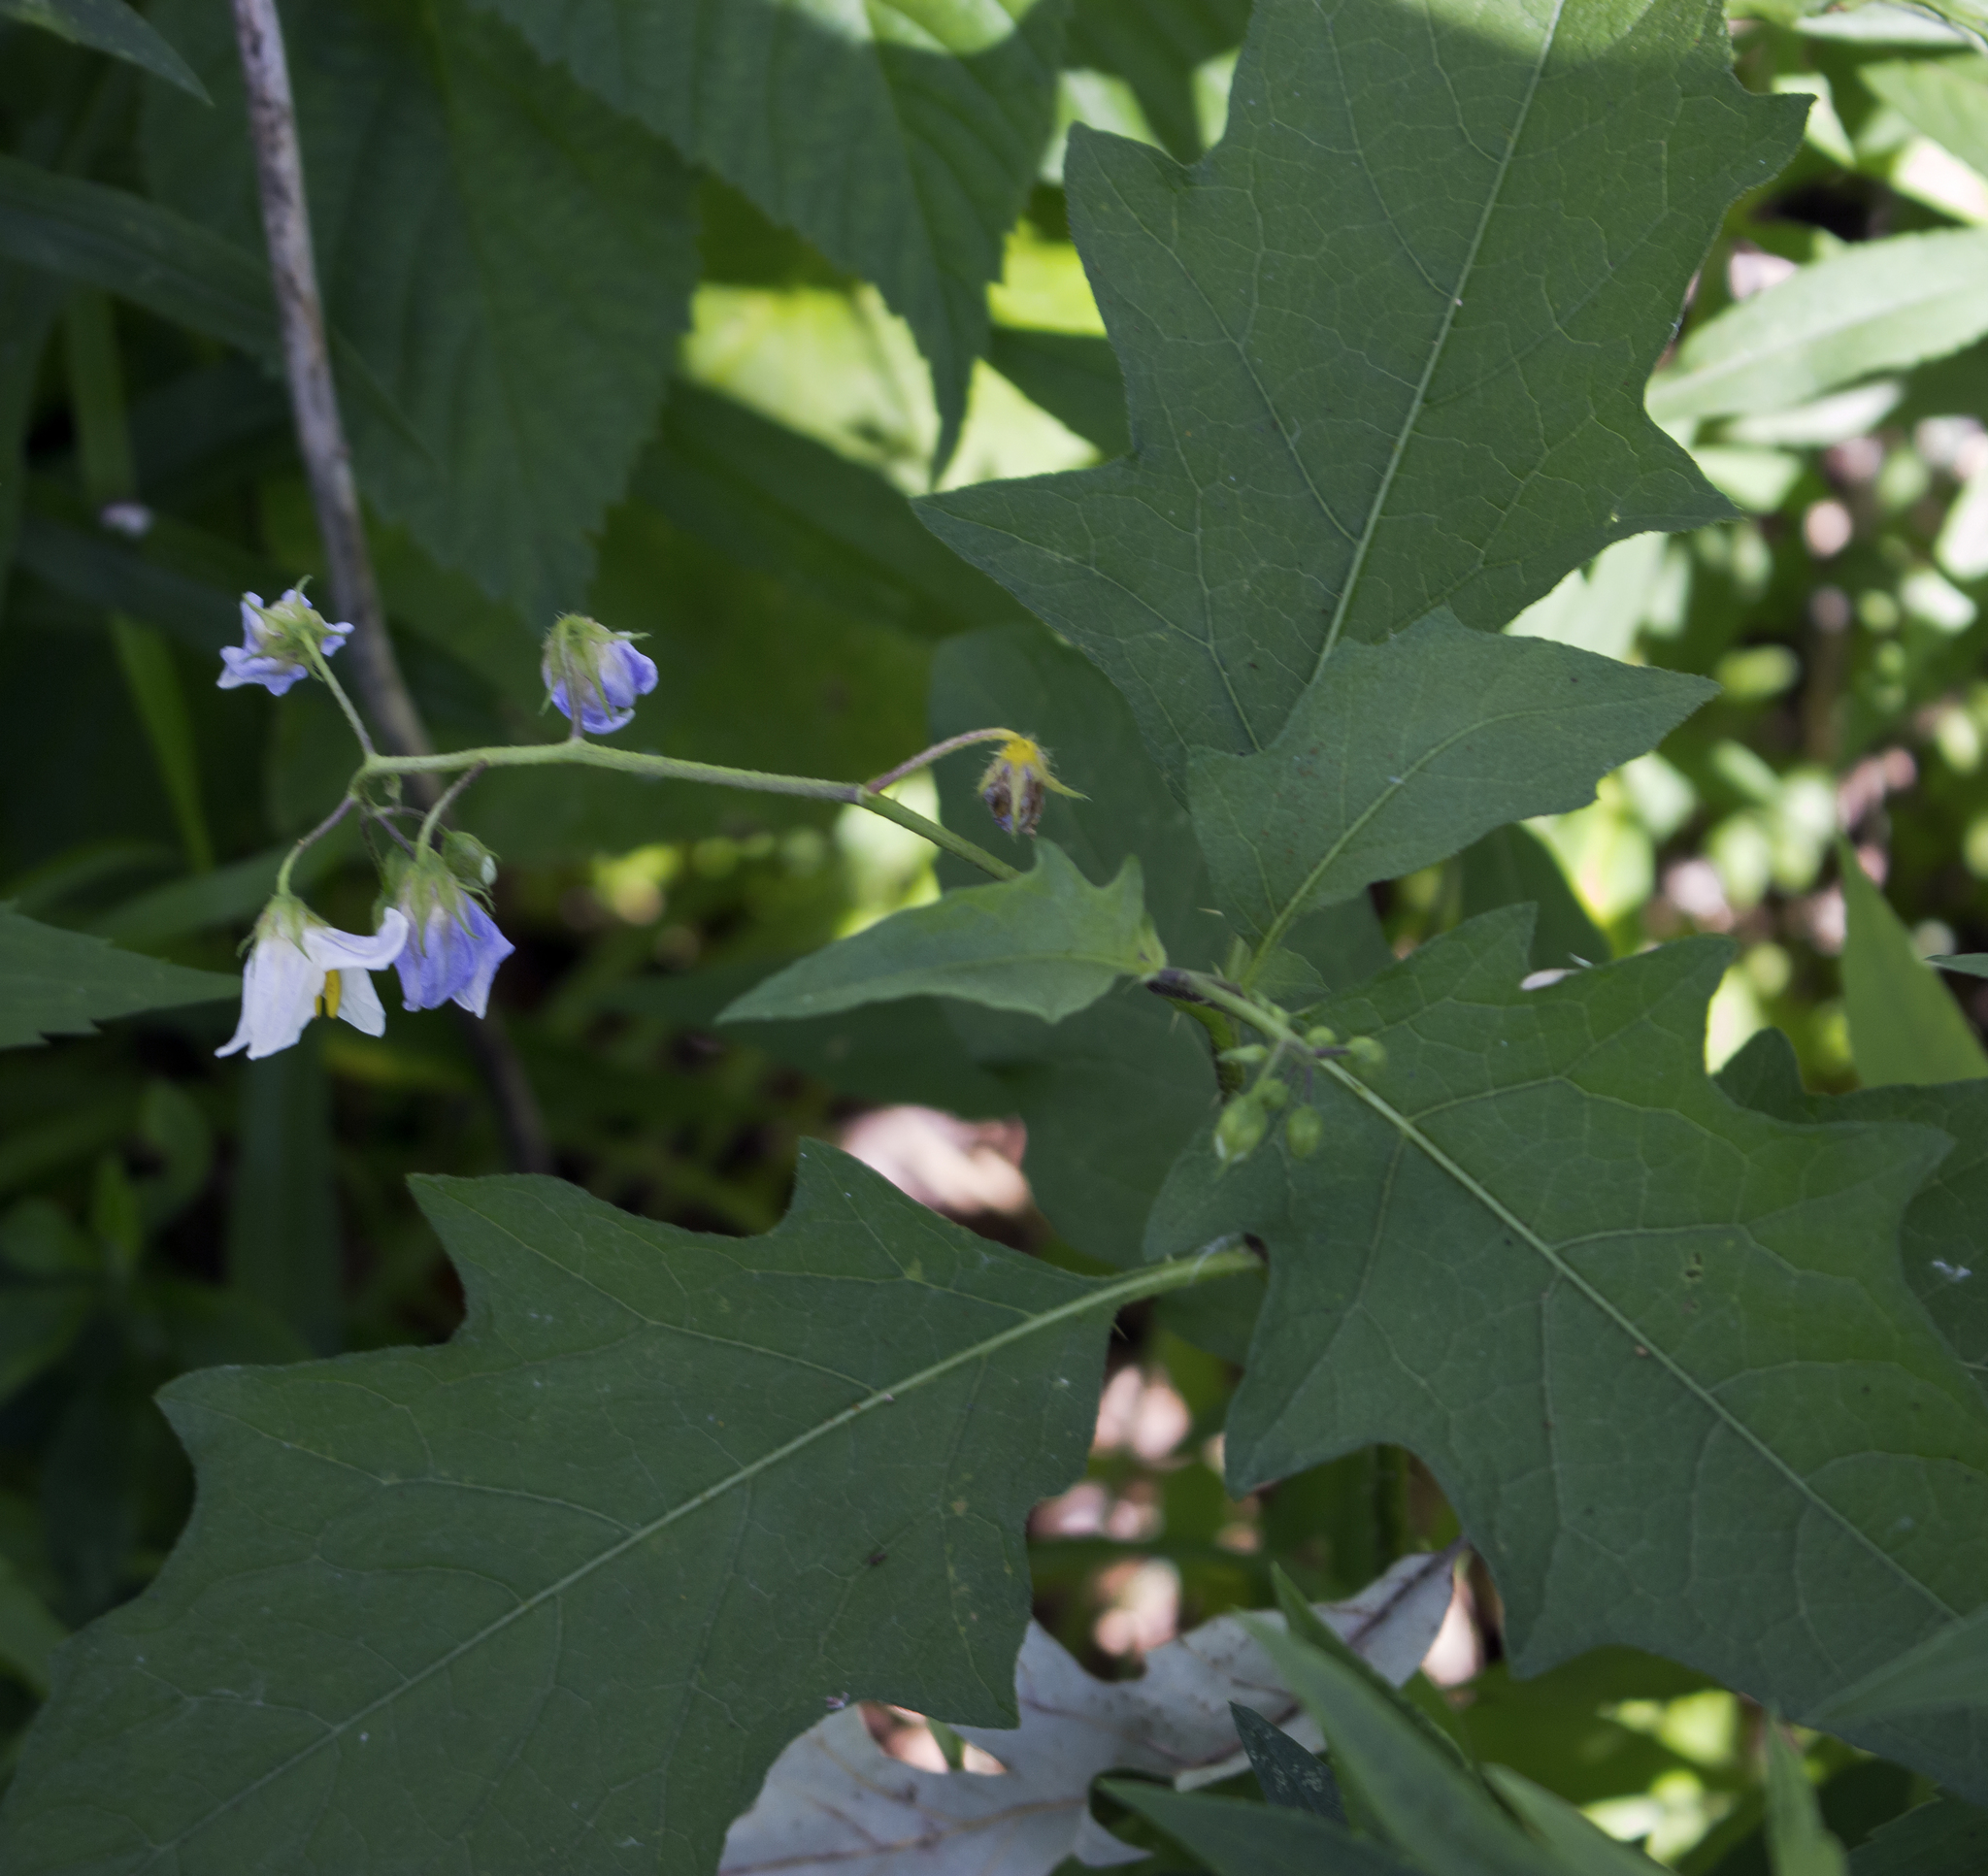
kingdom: Plantae
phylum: Tracheophyta
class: Magnoliopsida
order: Solanales
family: Solanaceae
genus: Solanum
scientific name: Solanum carolinense
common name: Horse-nettle
